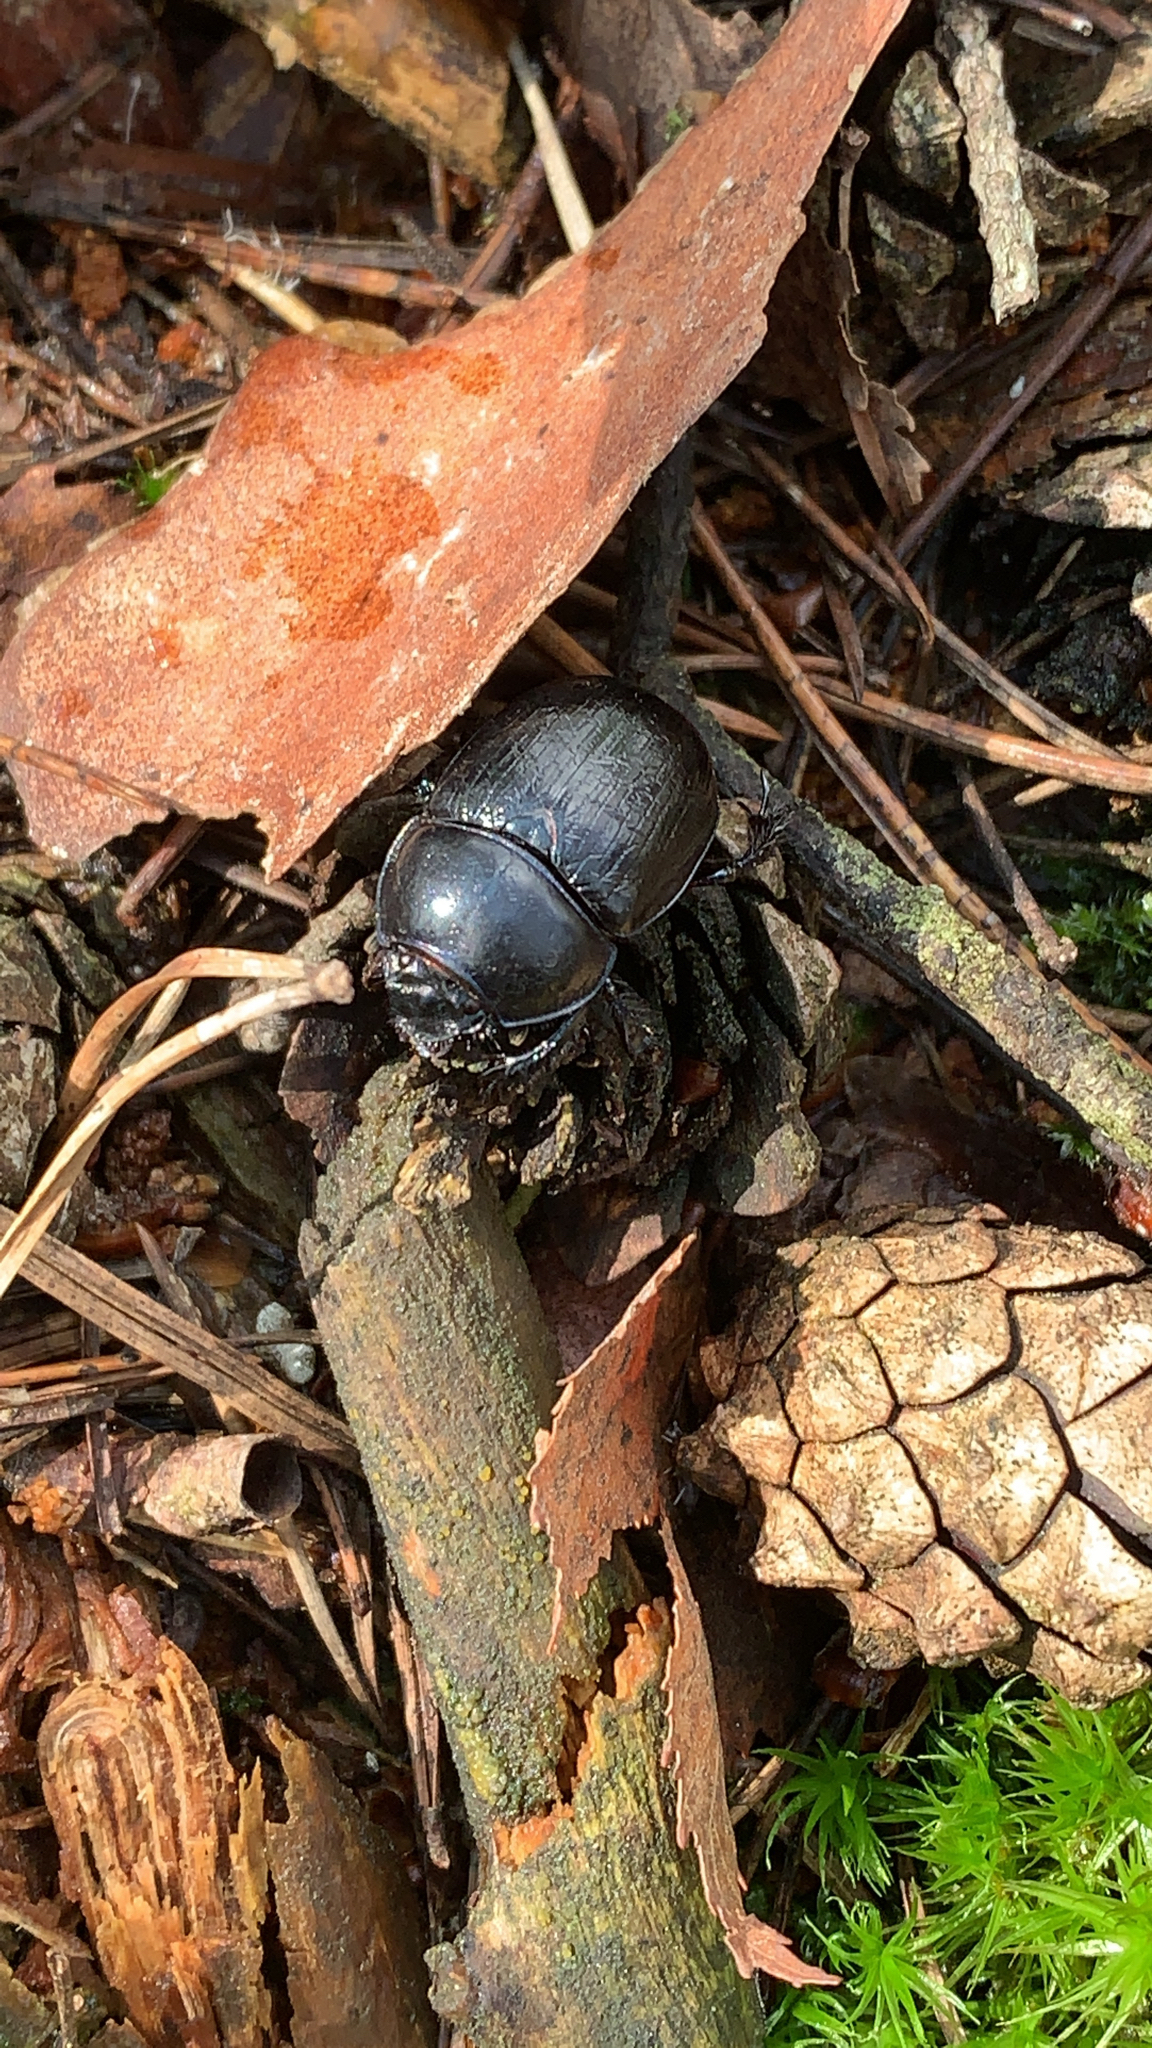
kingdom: Animalia
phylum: Arthropoda
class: Insecta
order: Coleoptera
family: Geotrupidae
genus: Anoplotrupes
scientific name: Anoplotrupes stercorosus
